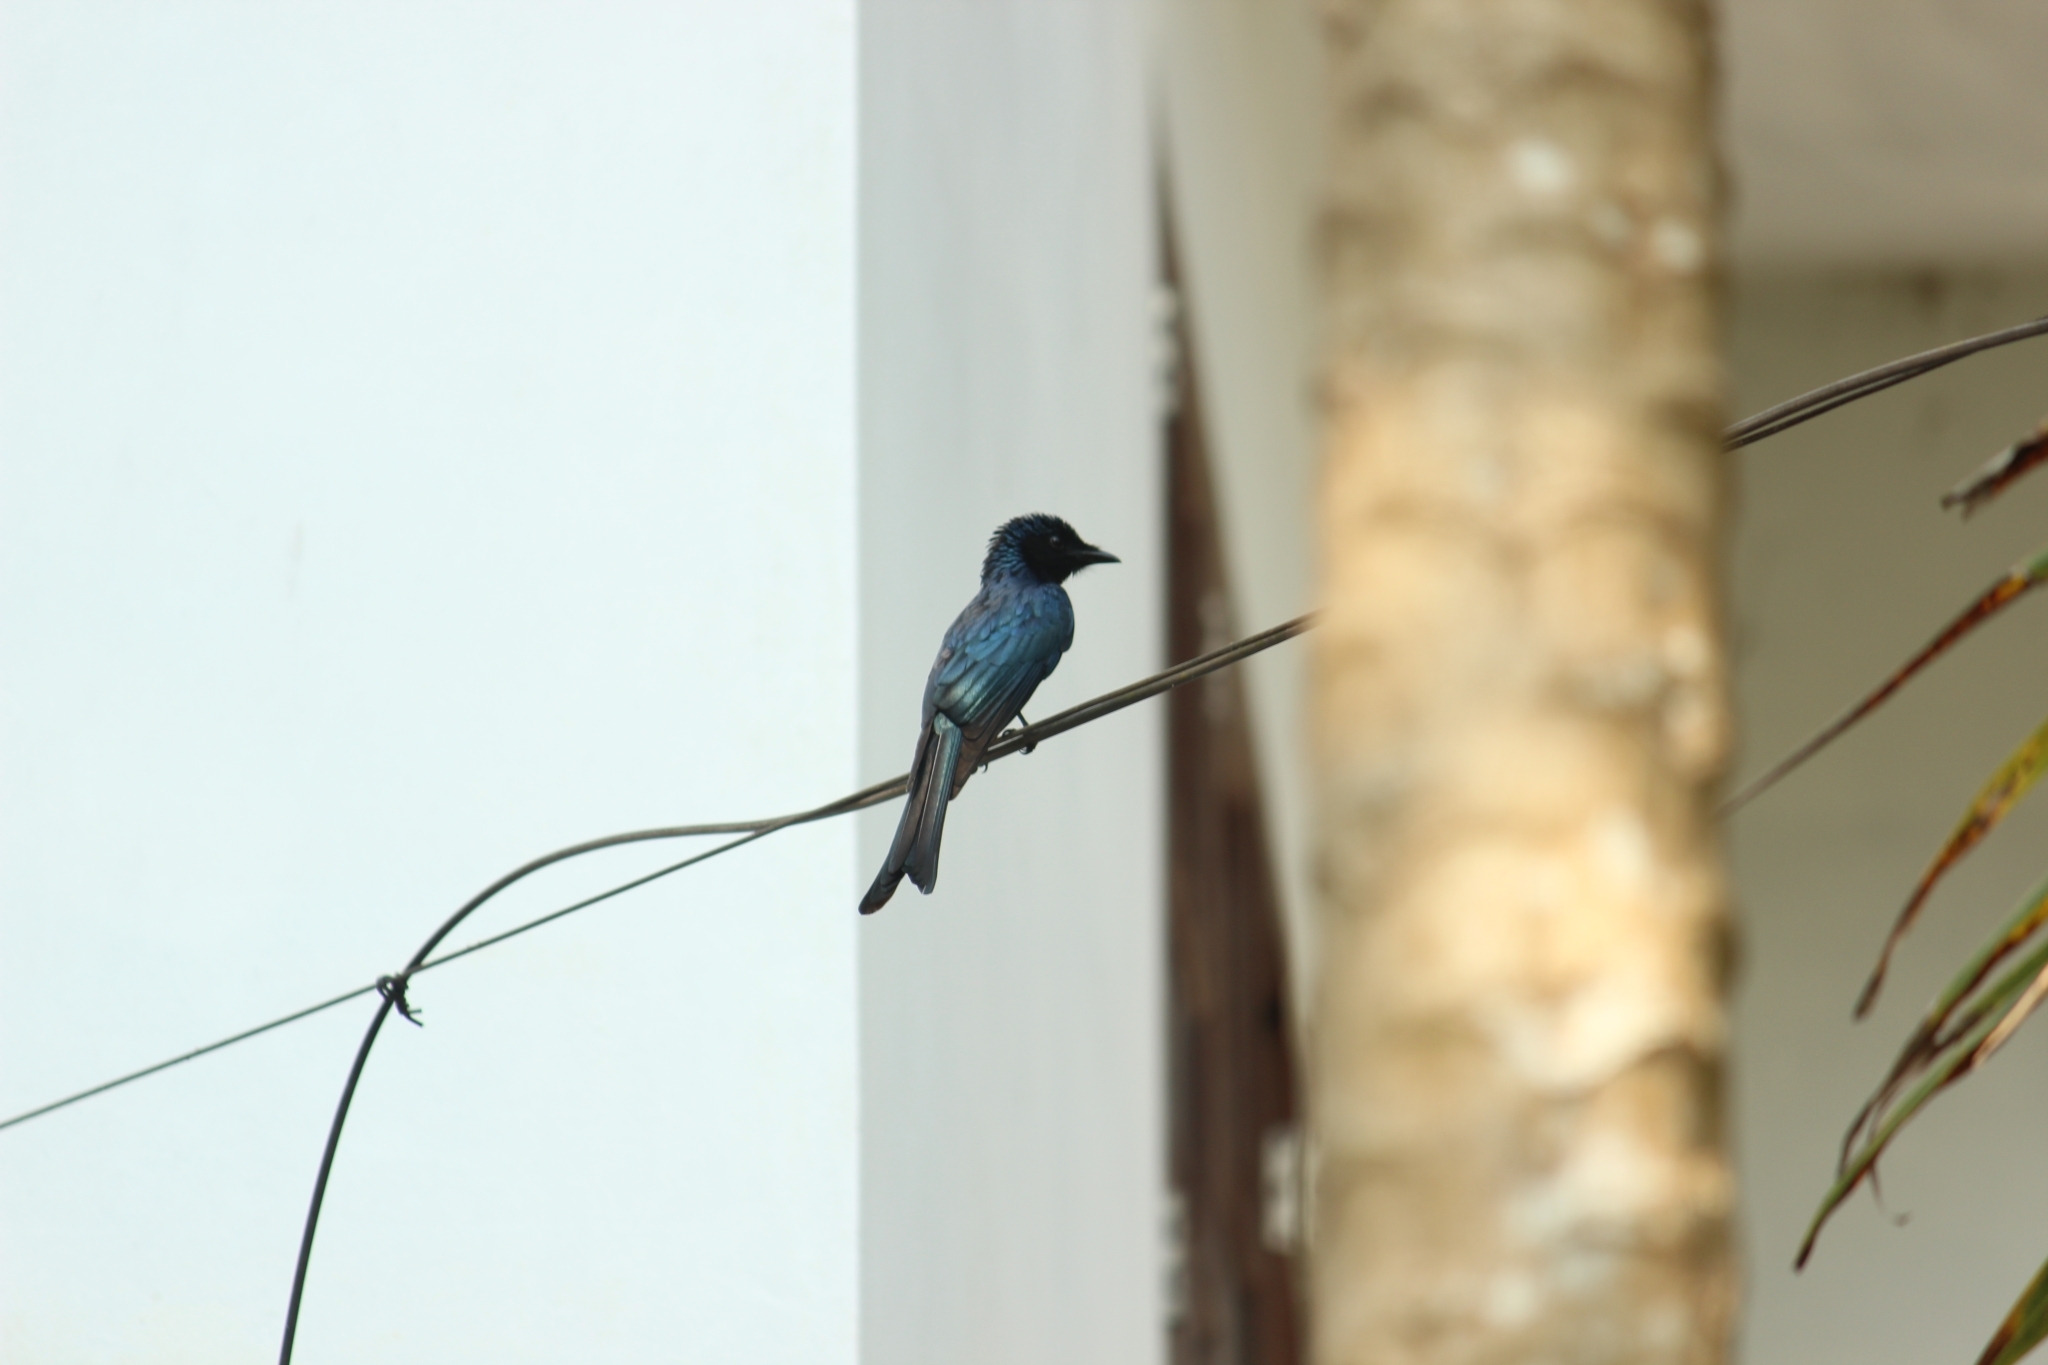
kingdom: Animalia
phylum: Chordata
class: Aves
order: Passeriformes
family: Dicruridae
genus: Dicrurus
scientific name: Dicrurus aeneus
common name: Bronzed drongo
